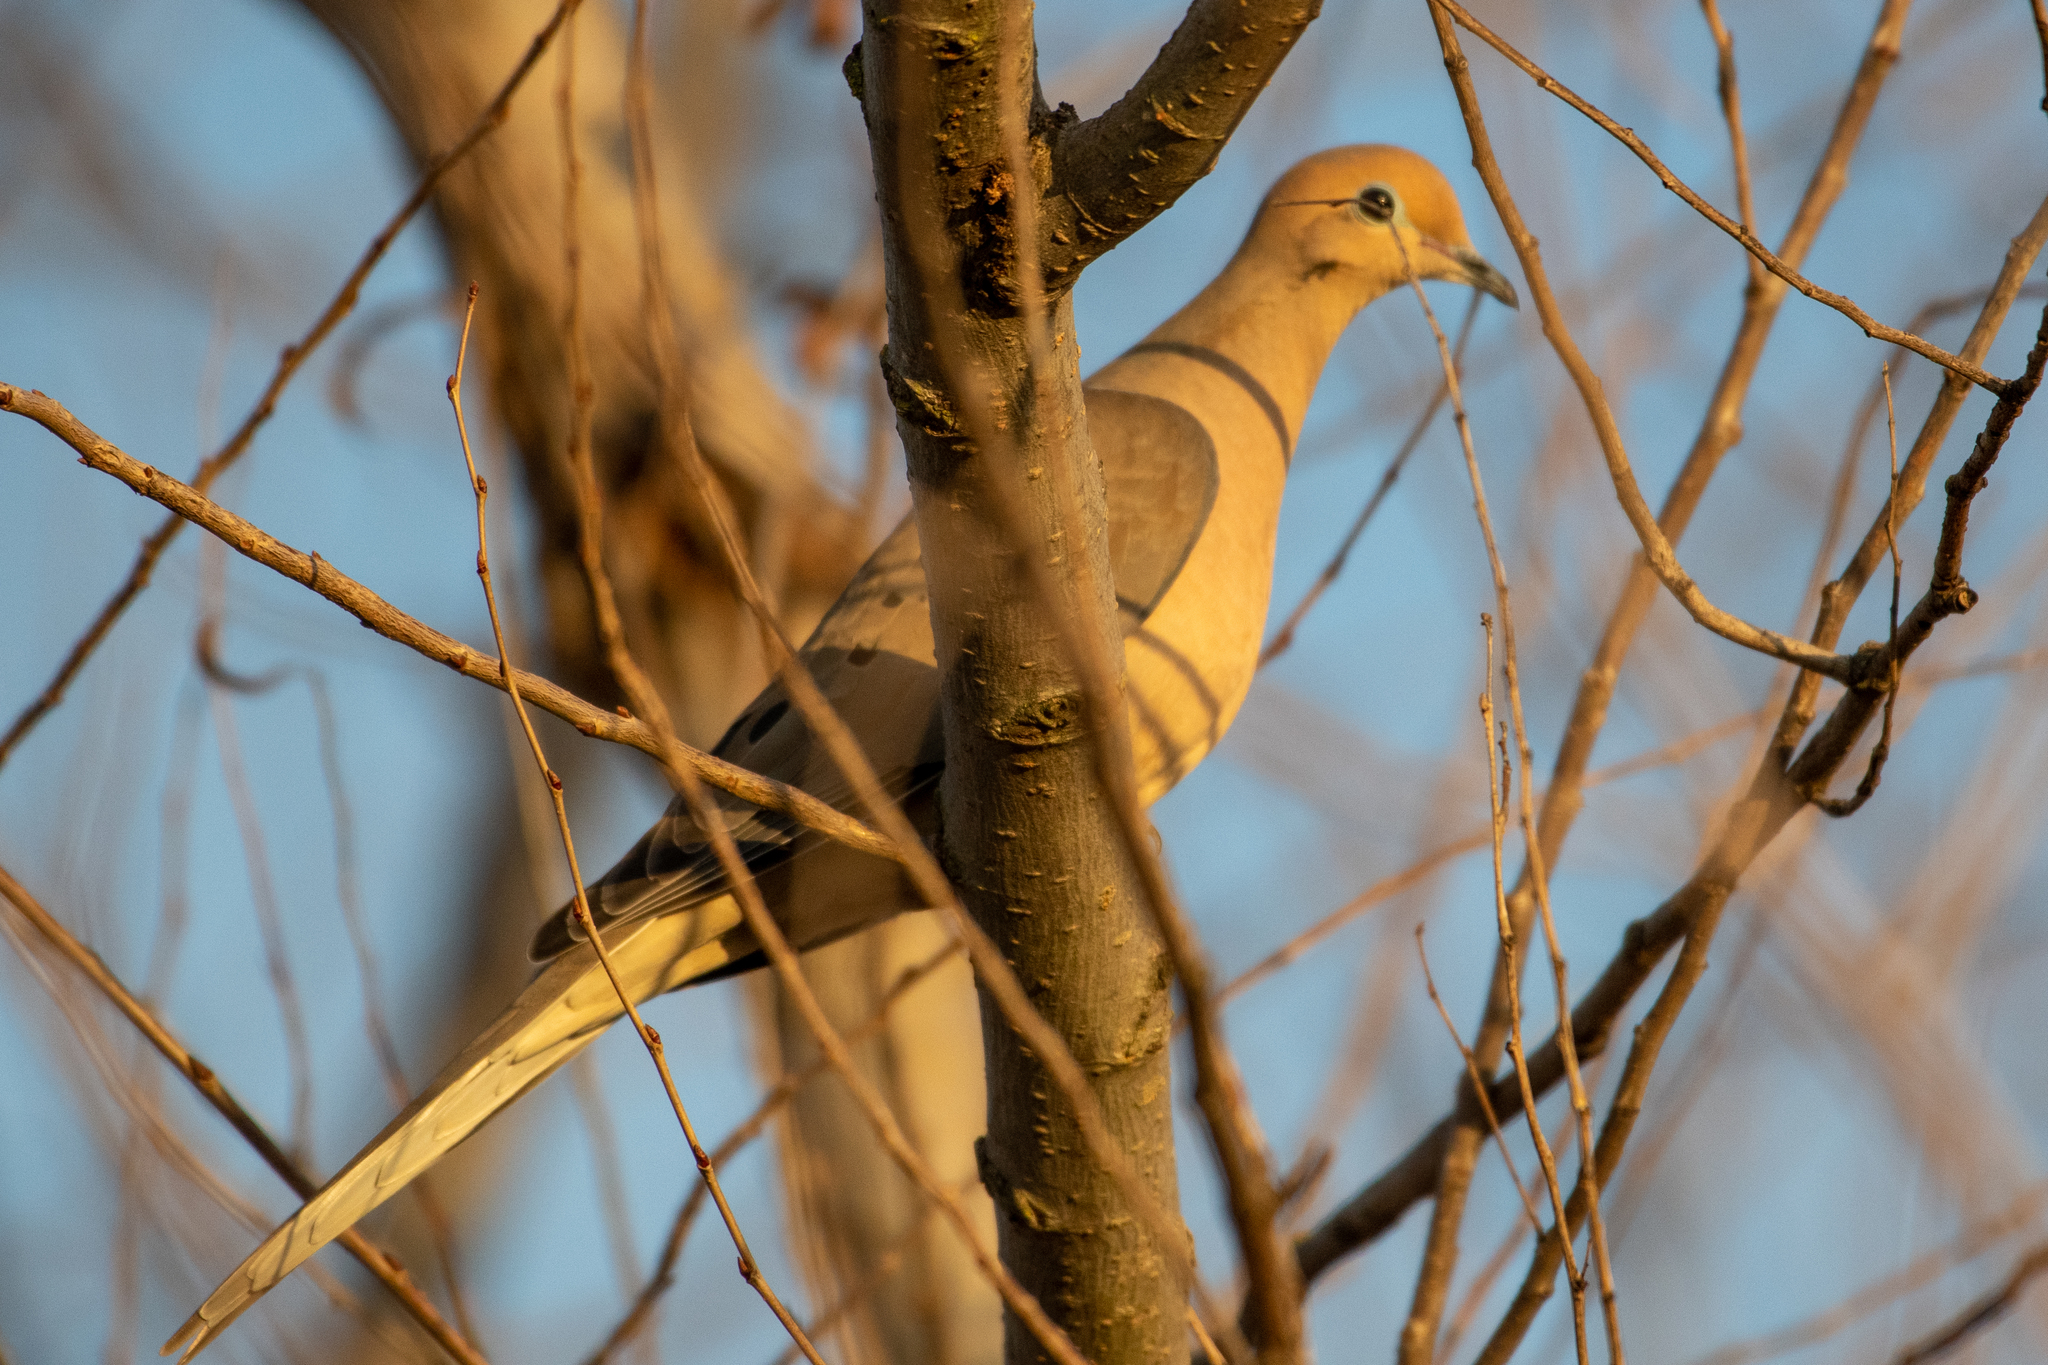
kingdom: Animalia
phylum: Chordata
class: Aves
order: Columbiformes
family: Columbidae
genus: Zenaida
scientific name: Zenaida macroura
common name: Mourning dove
